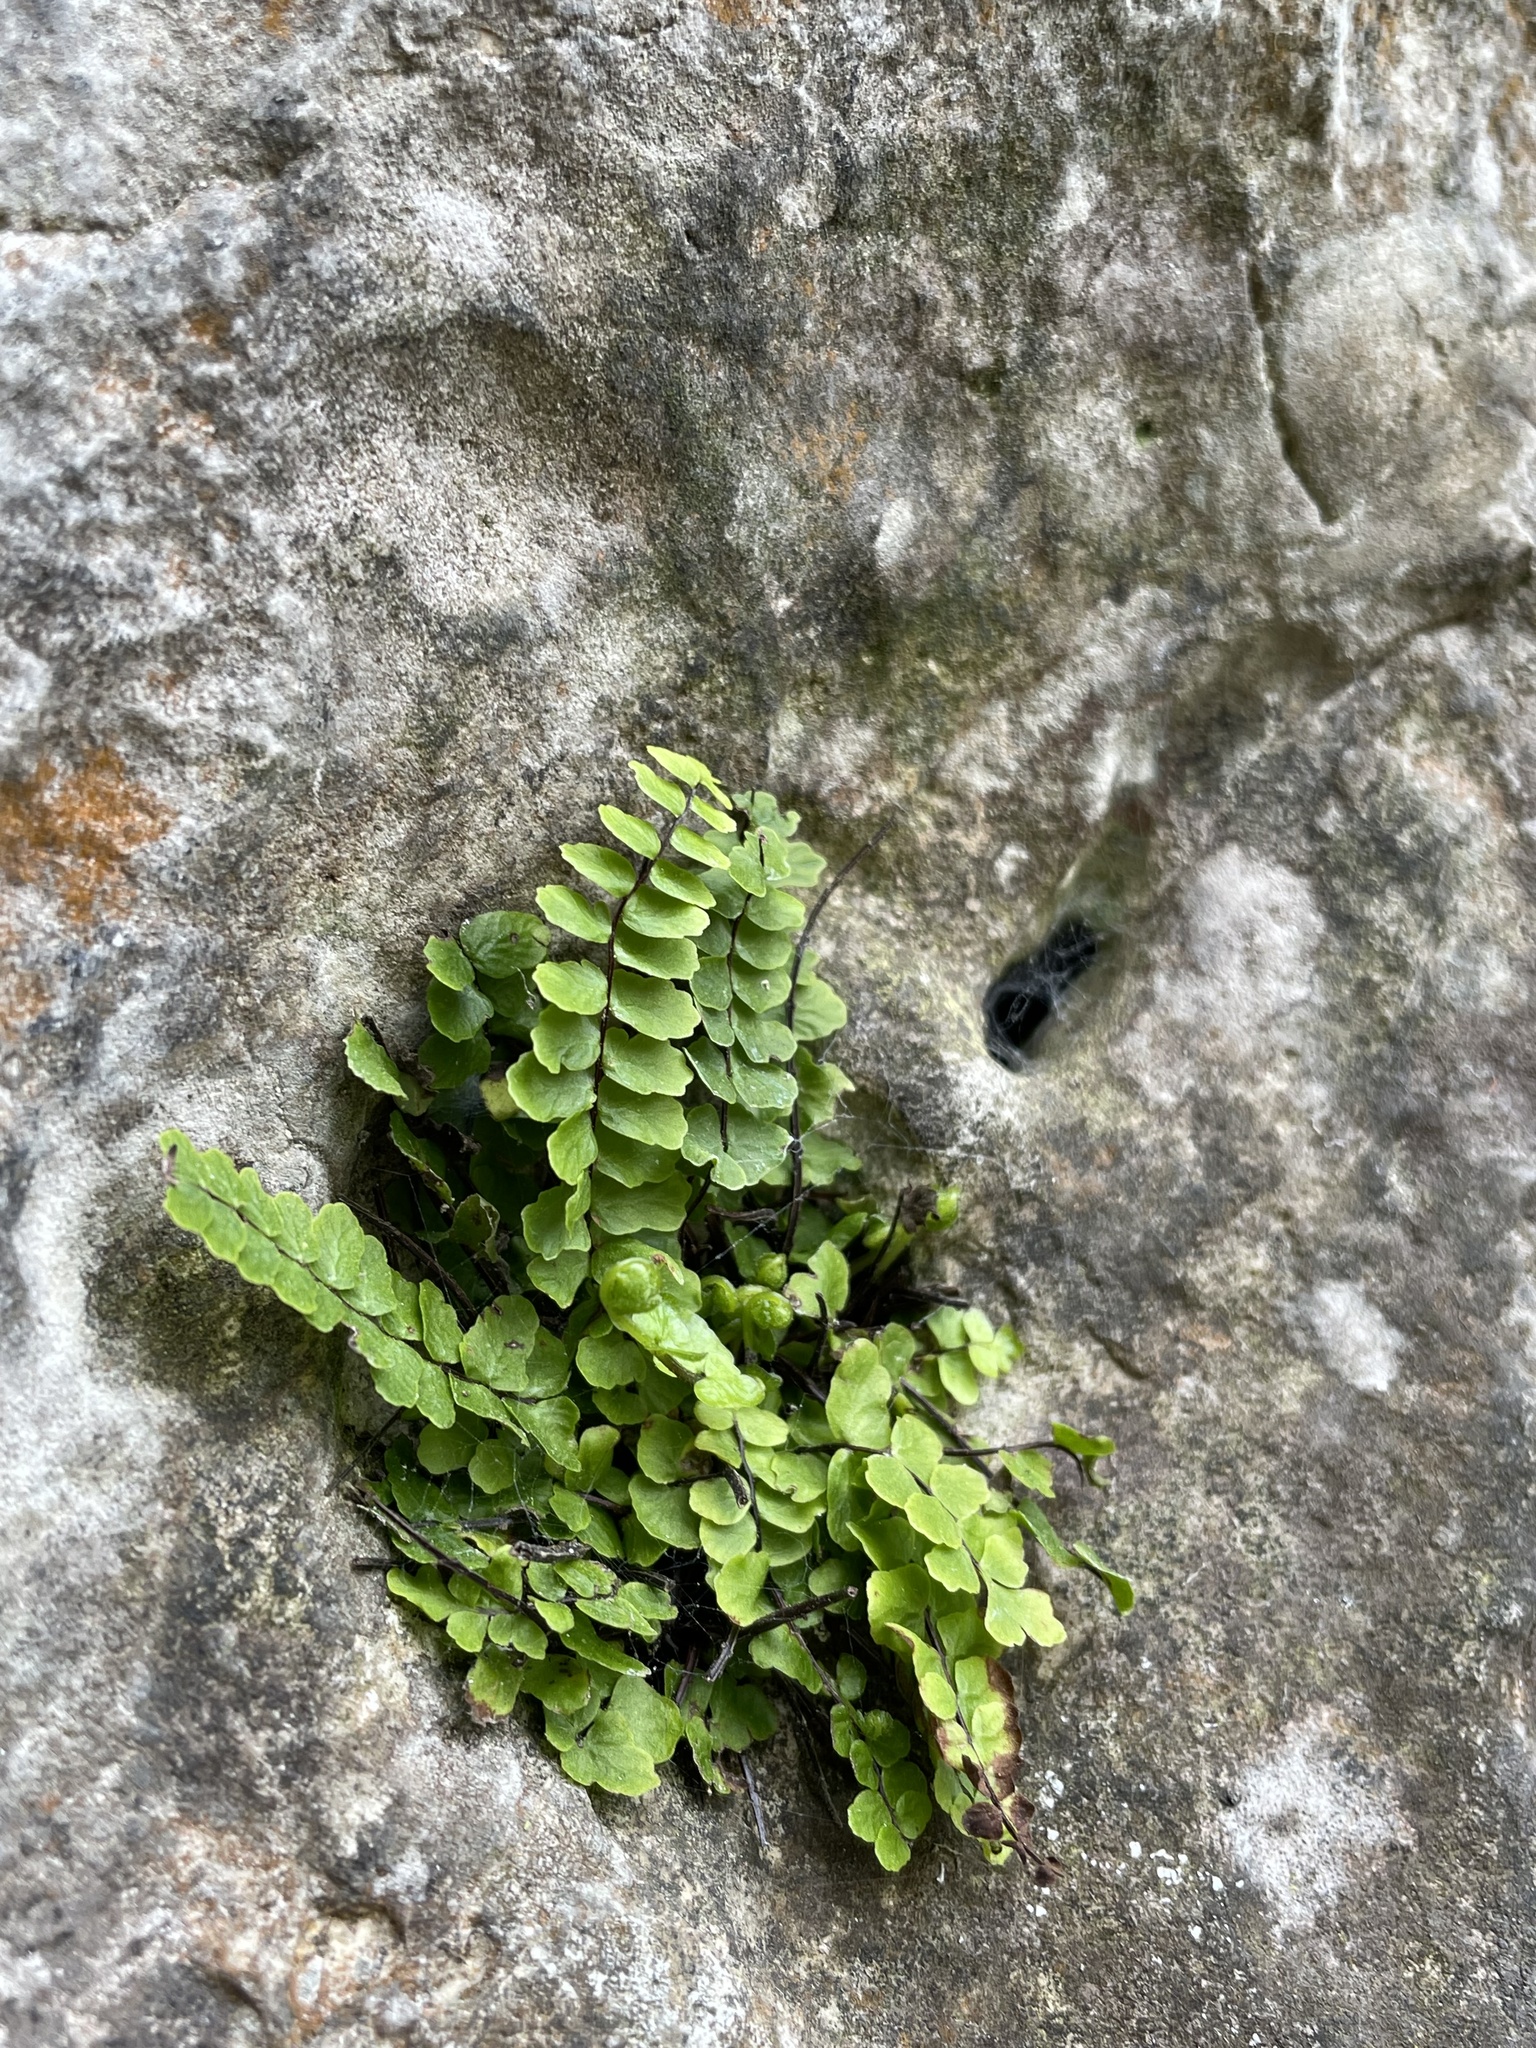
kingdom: Plantae
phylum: Tracheophyta
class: Polypodiopsida
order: Polypodiales
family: Aspleniaceae
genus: Asplenium
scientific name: Asplenium trichomanes
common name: Maidenhair spleenwort
